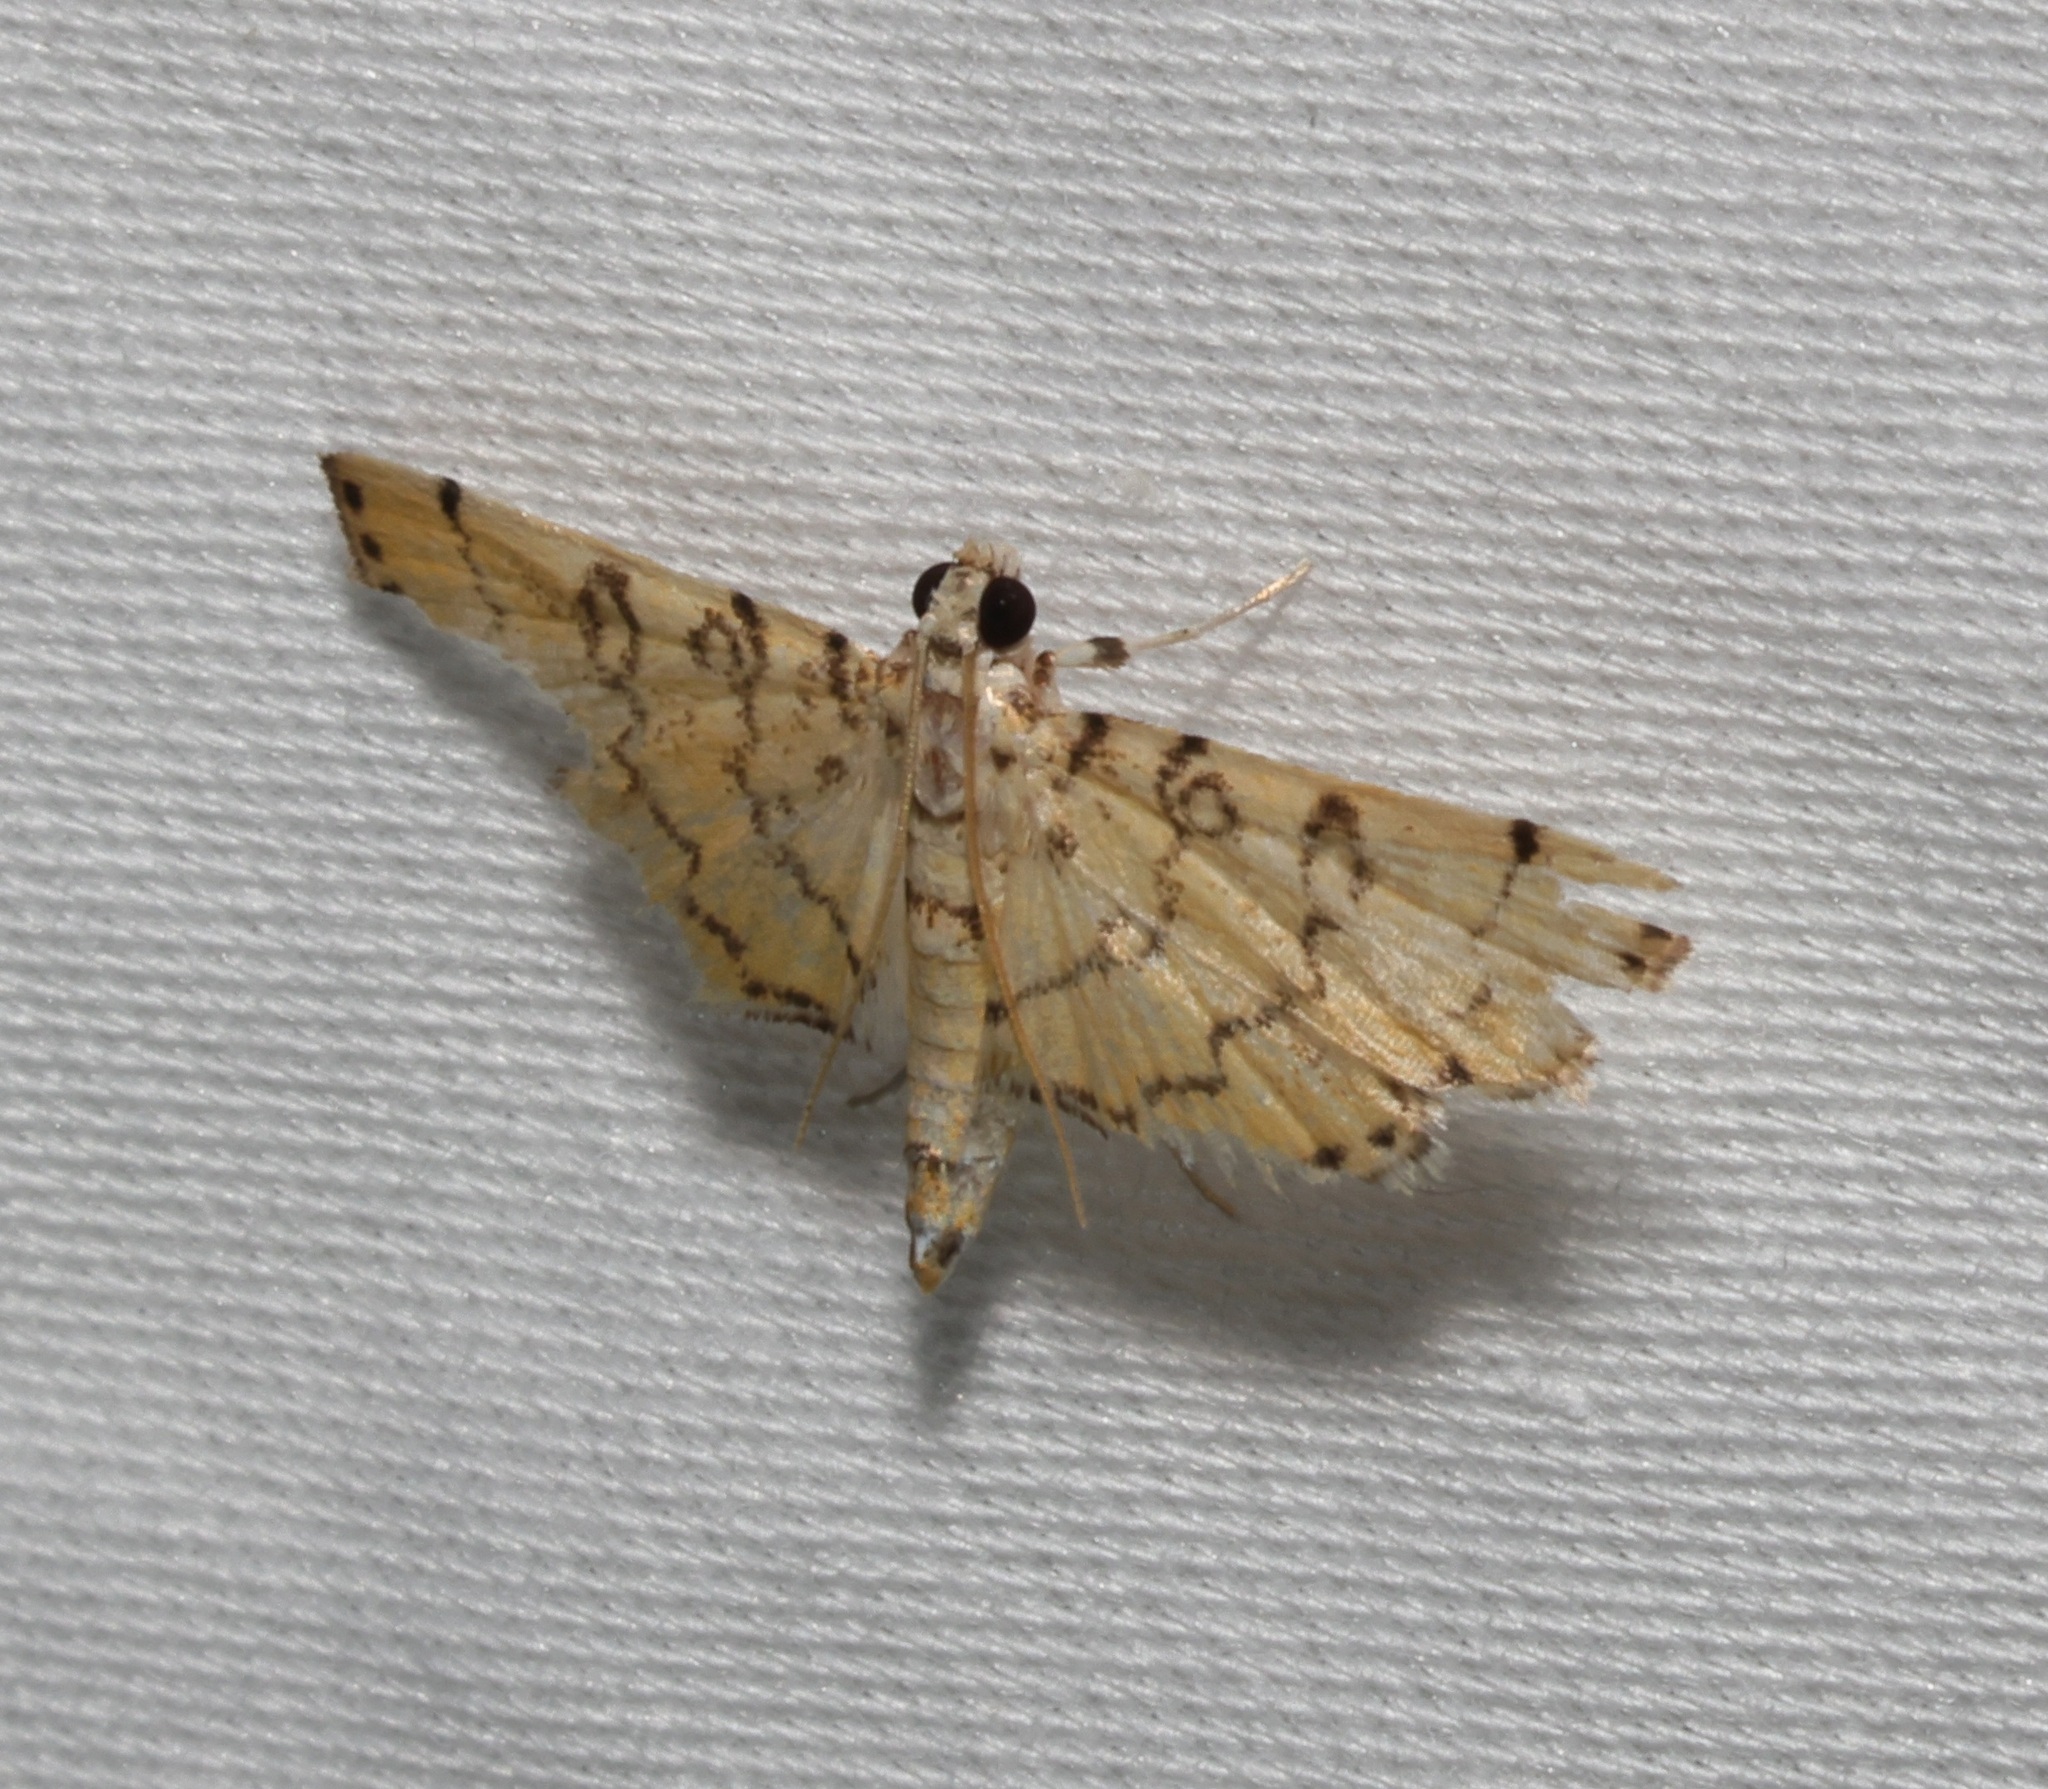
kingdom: Animalia
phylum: Arthropoda
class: Insecta
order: Lepidoptera
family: Crambidae
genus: Lamprosema
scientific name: Lamprosema tampiusalis
